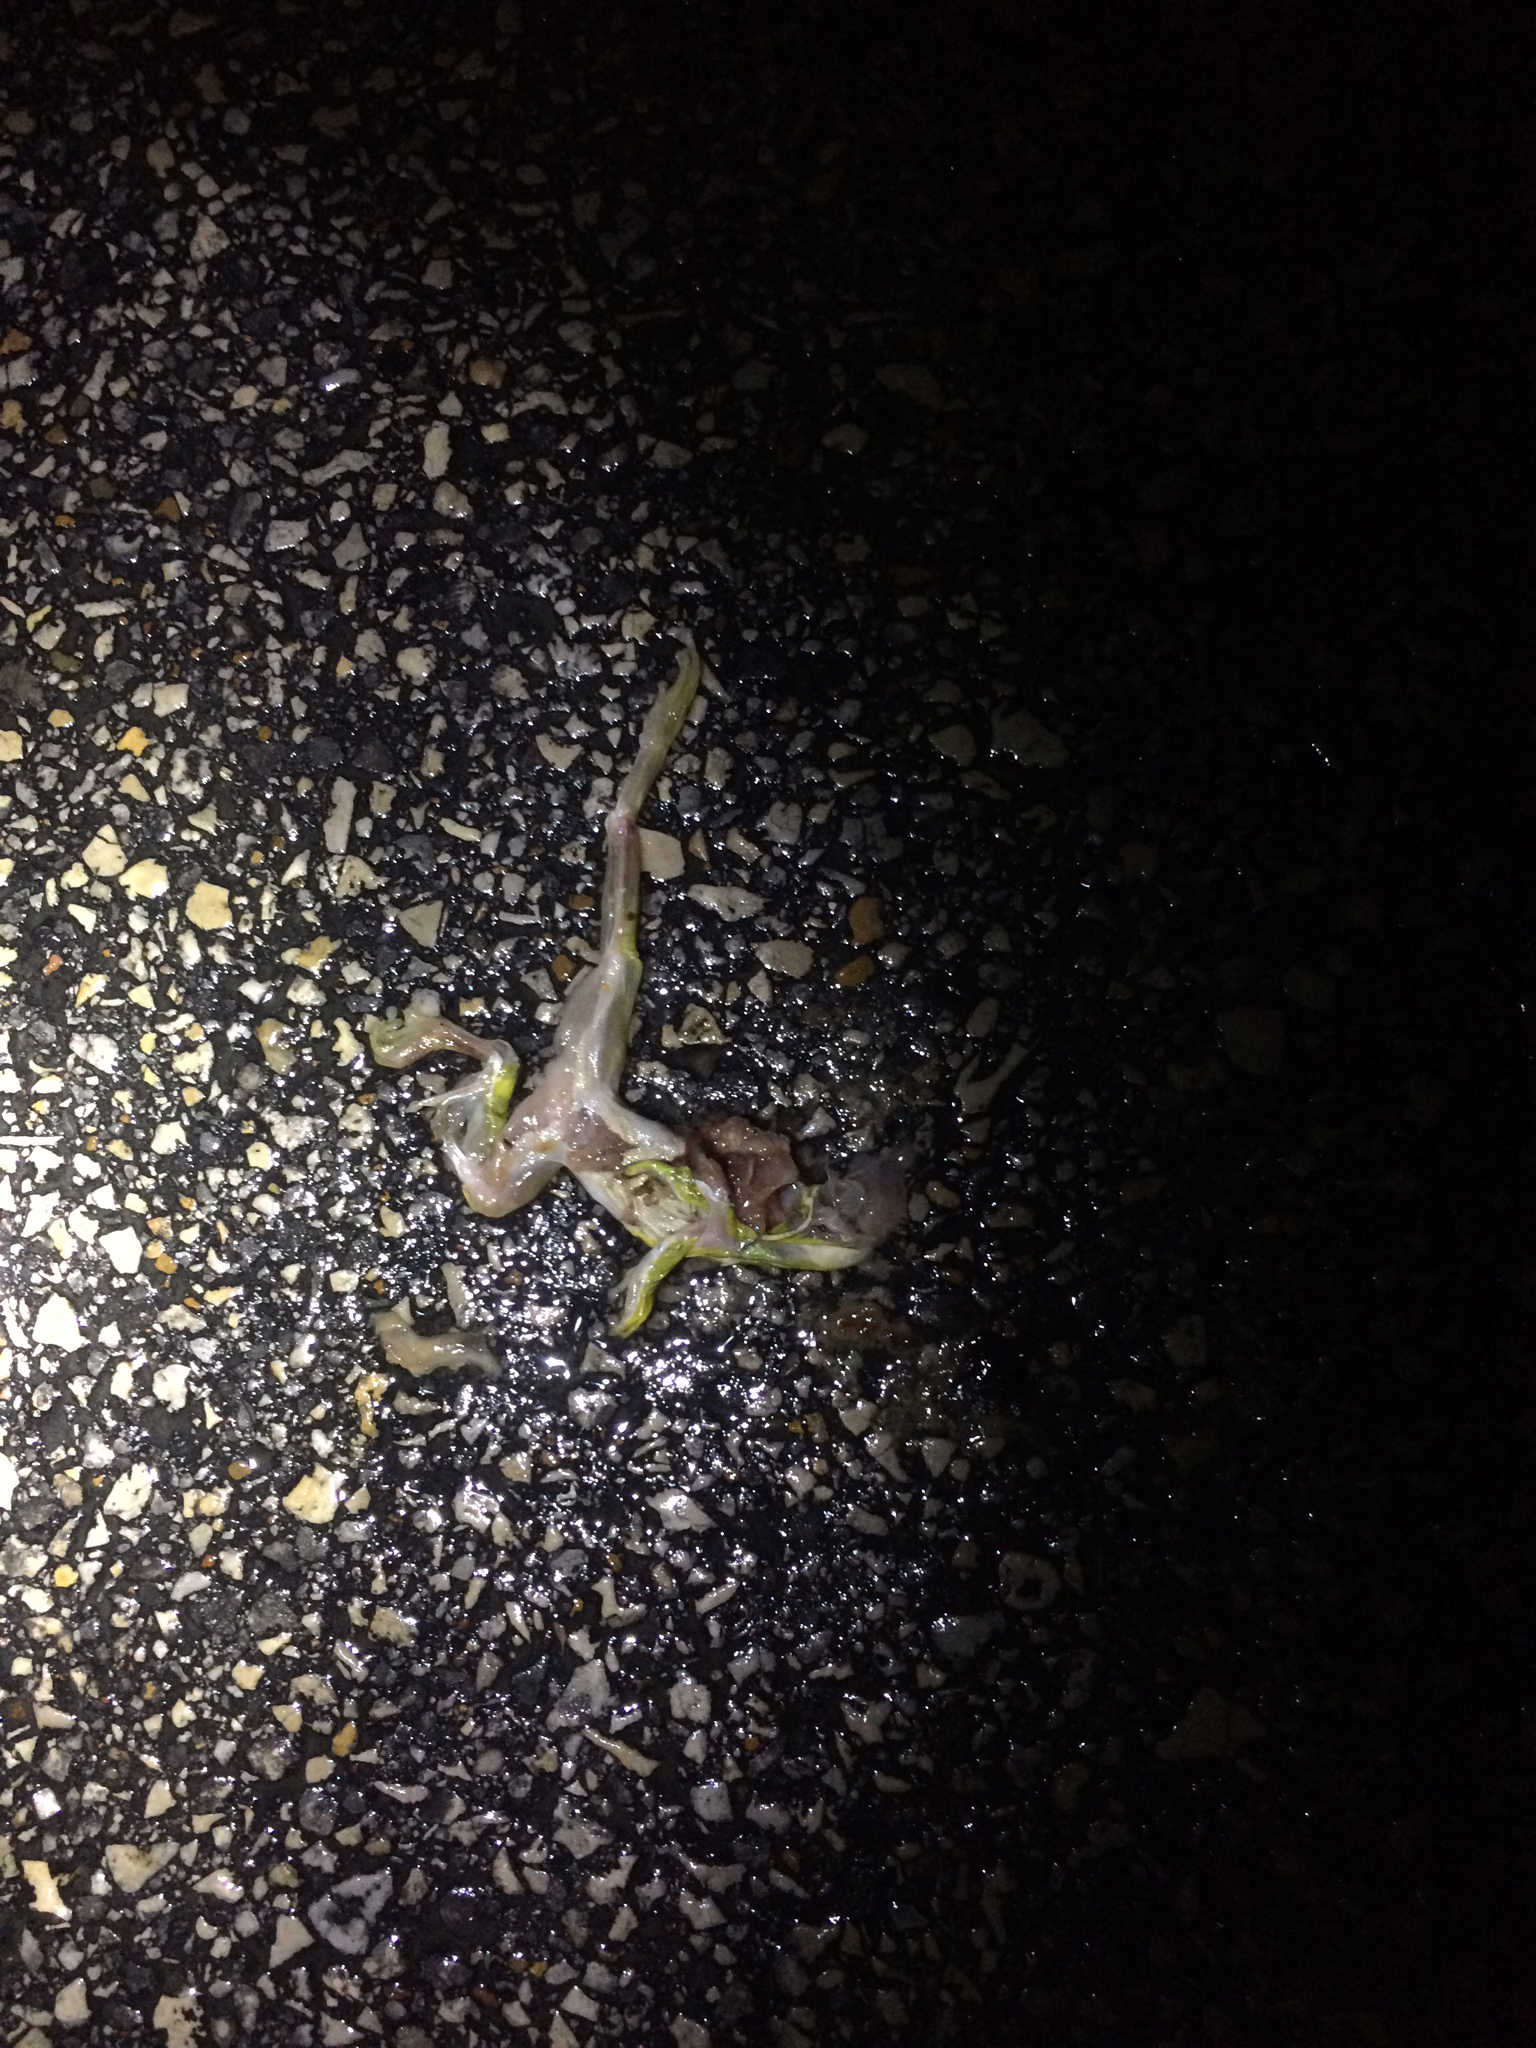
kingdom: Animalia
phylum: Chordata
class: Amphibia
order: Anura
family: Ranidae
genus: Lithobates
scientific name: Lithobates sphenocephalus
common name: Southern leopard frog
